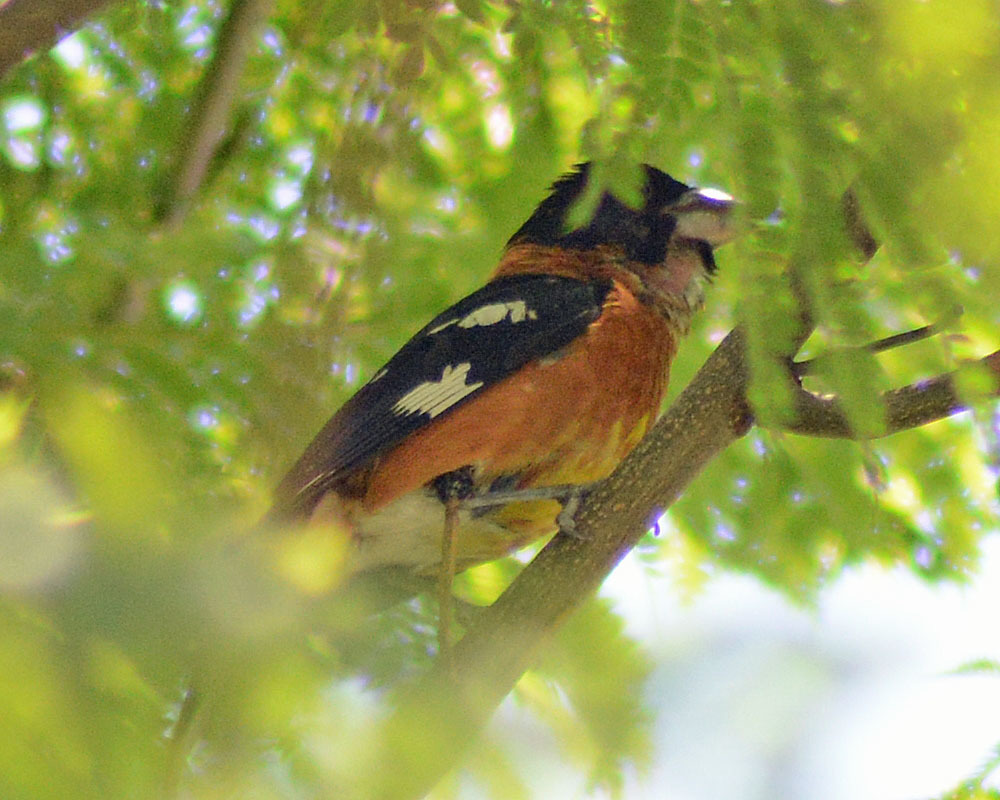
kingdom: Animalia
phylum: Chordata
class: Aves
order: Passeriformes
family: Cardinalidae
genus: Pheucticus
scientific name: Pheucticus melanocephalus
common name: Black-headed grosbeak
